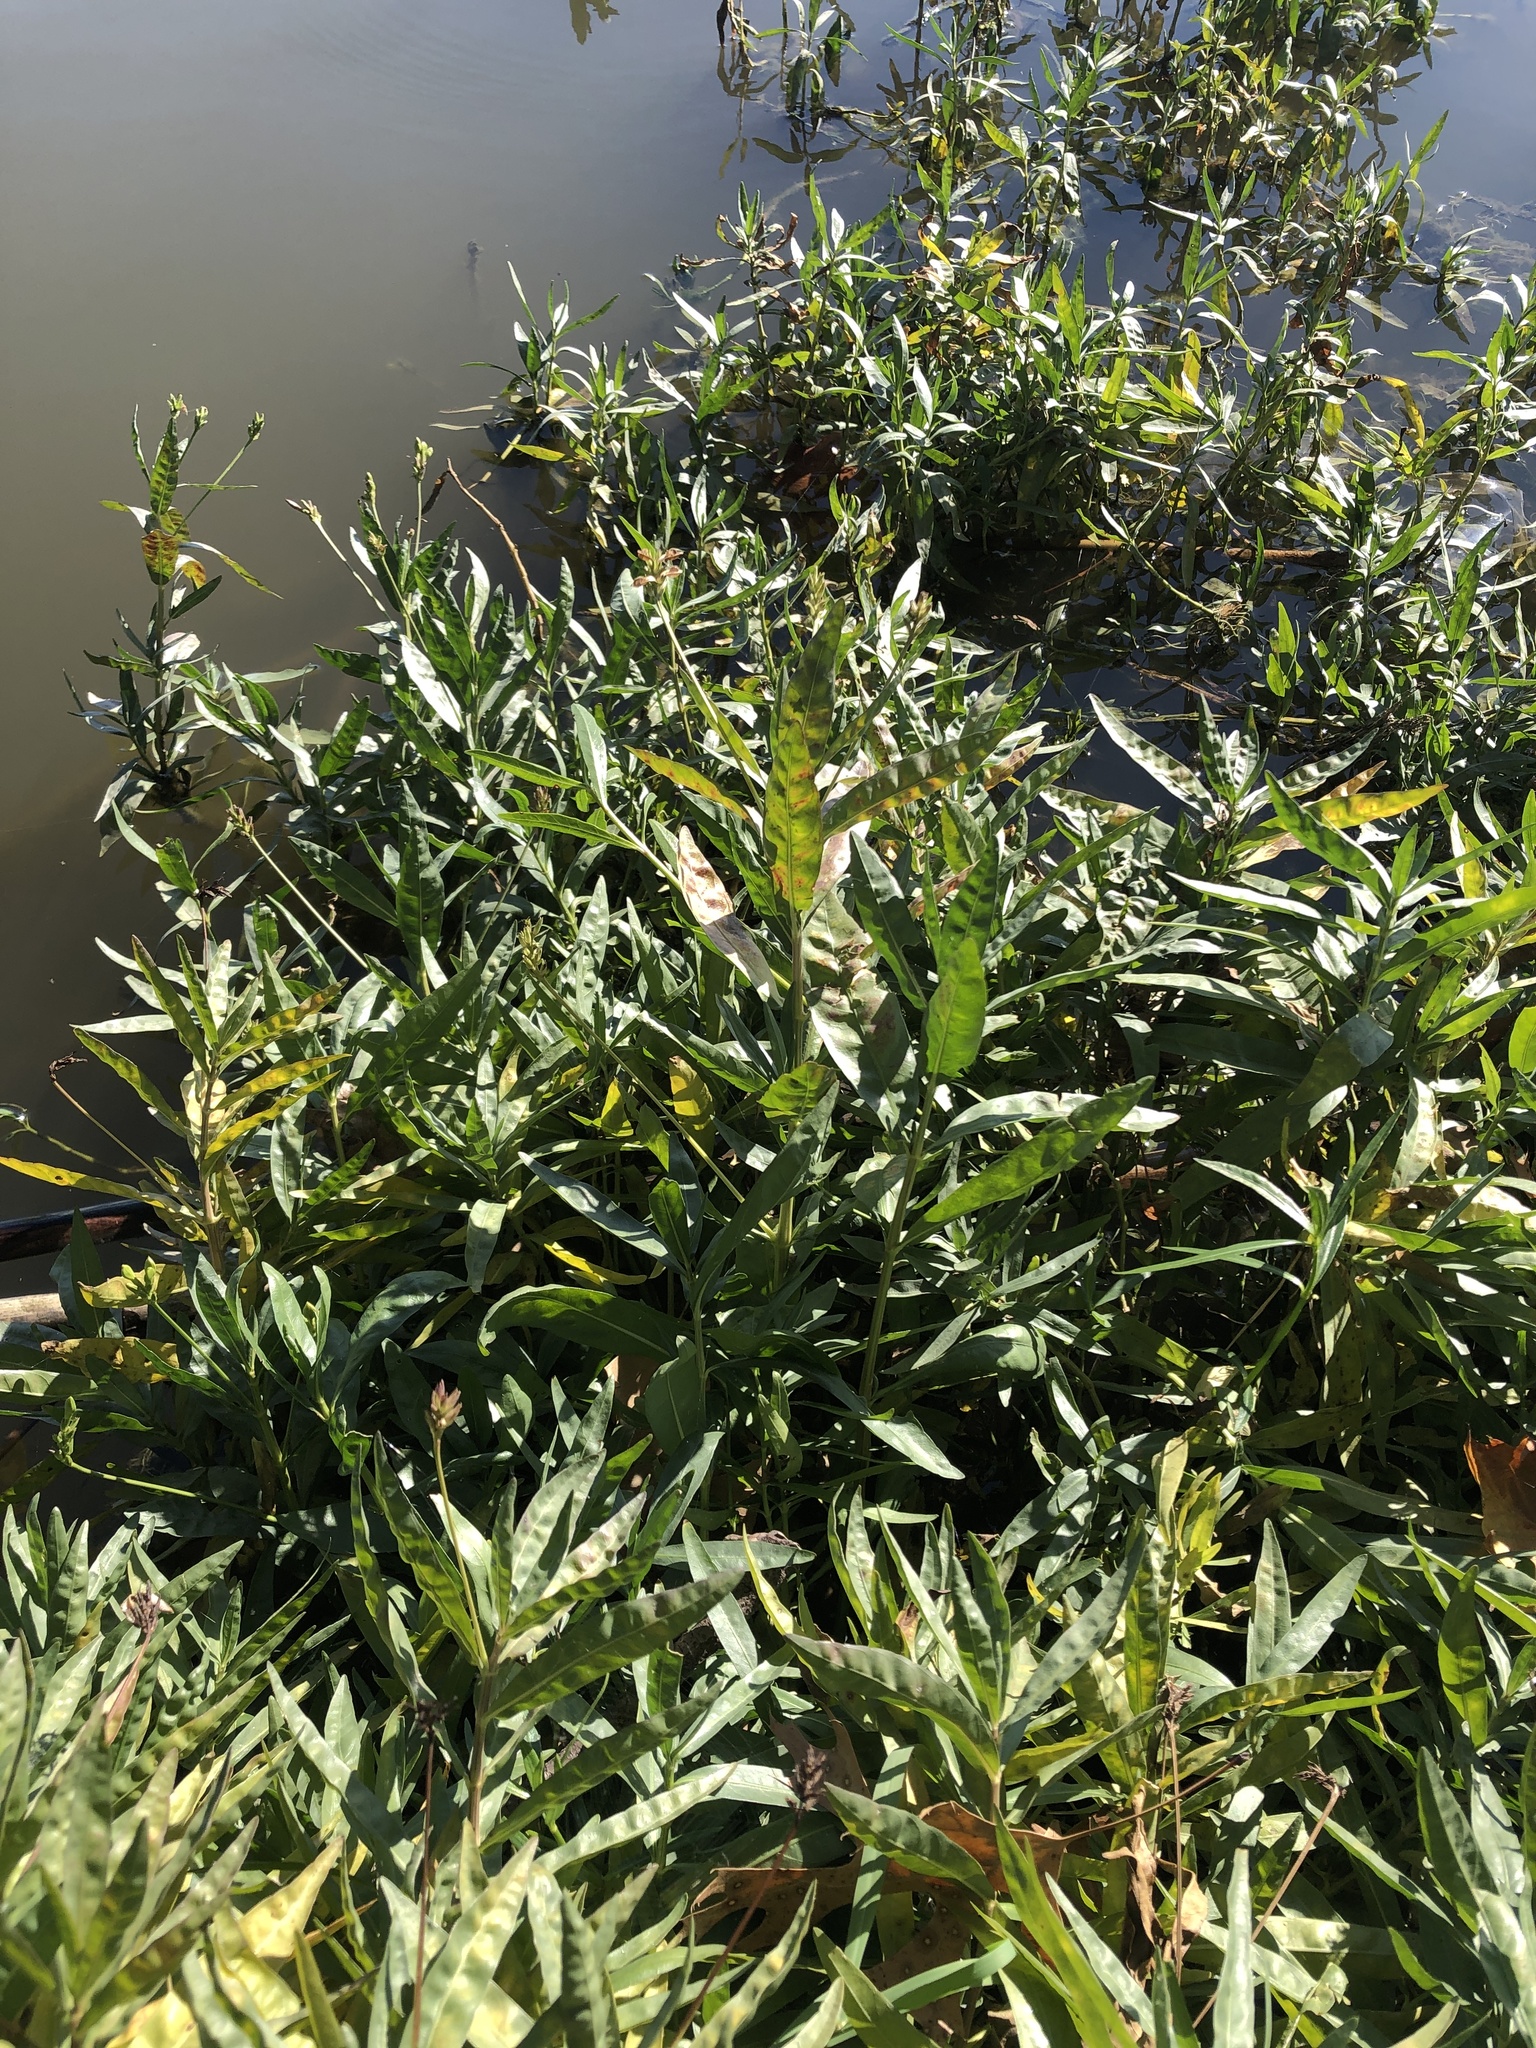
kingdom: Plantae
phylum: Tracheophyta
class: Magnoliopsida
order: Lamiales
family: Acanthaceae
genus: Dianthera
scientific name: Dianthera americana
